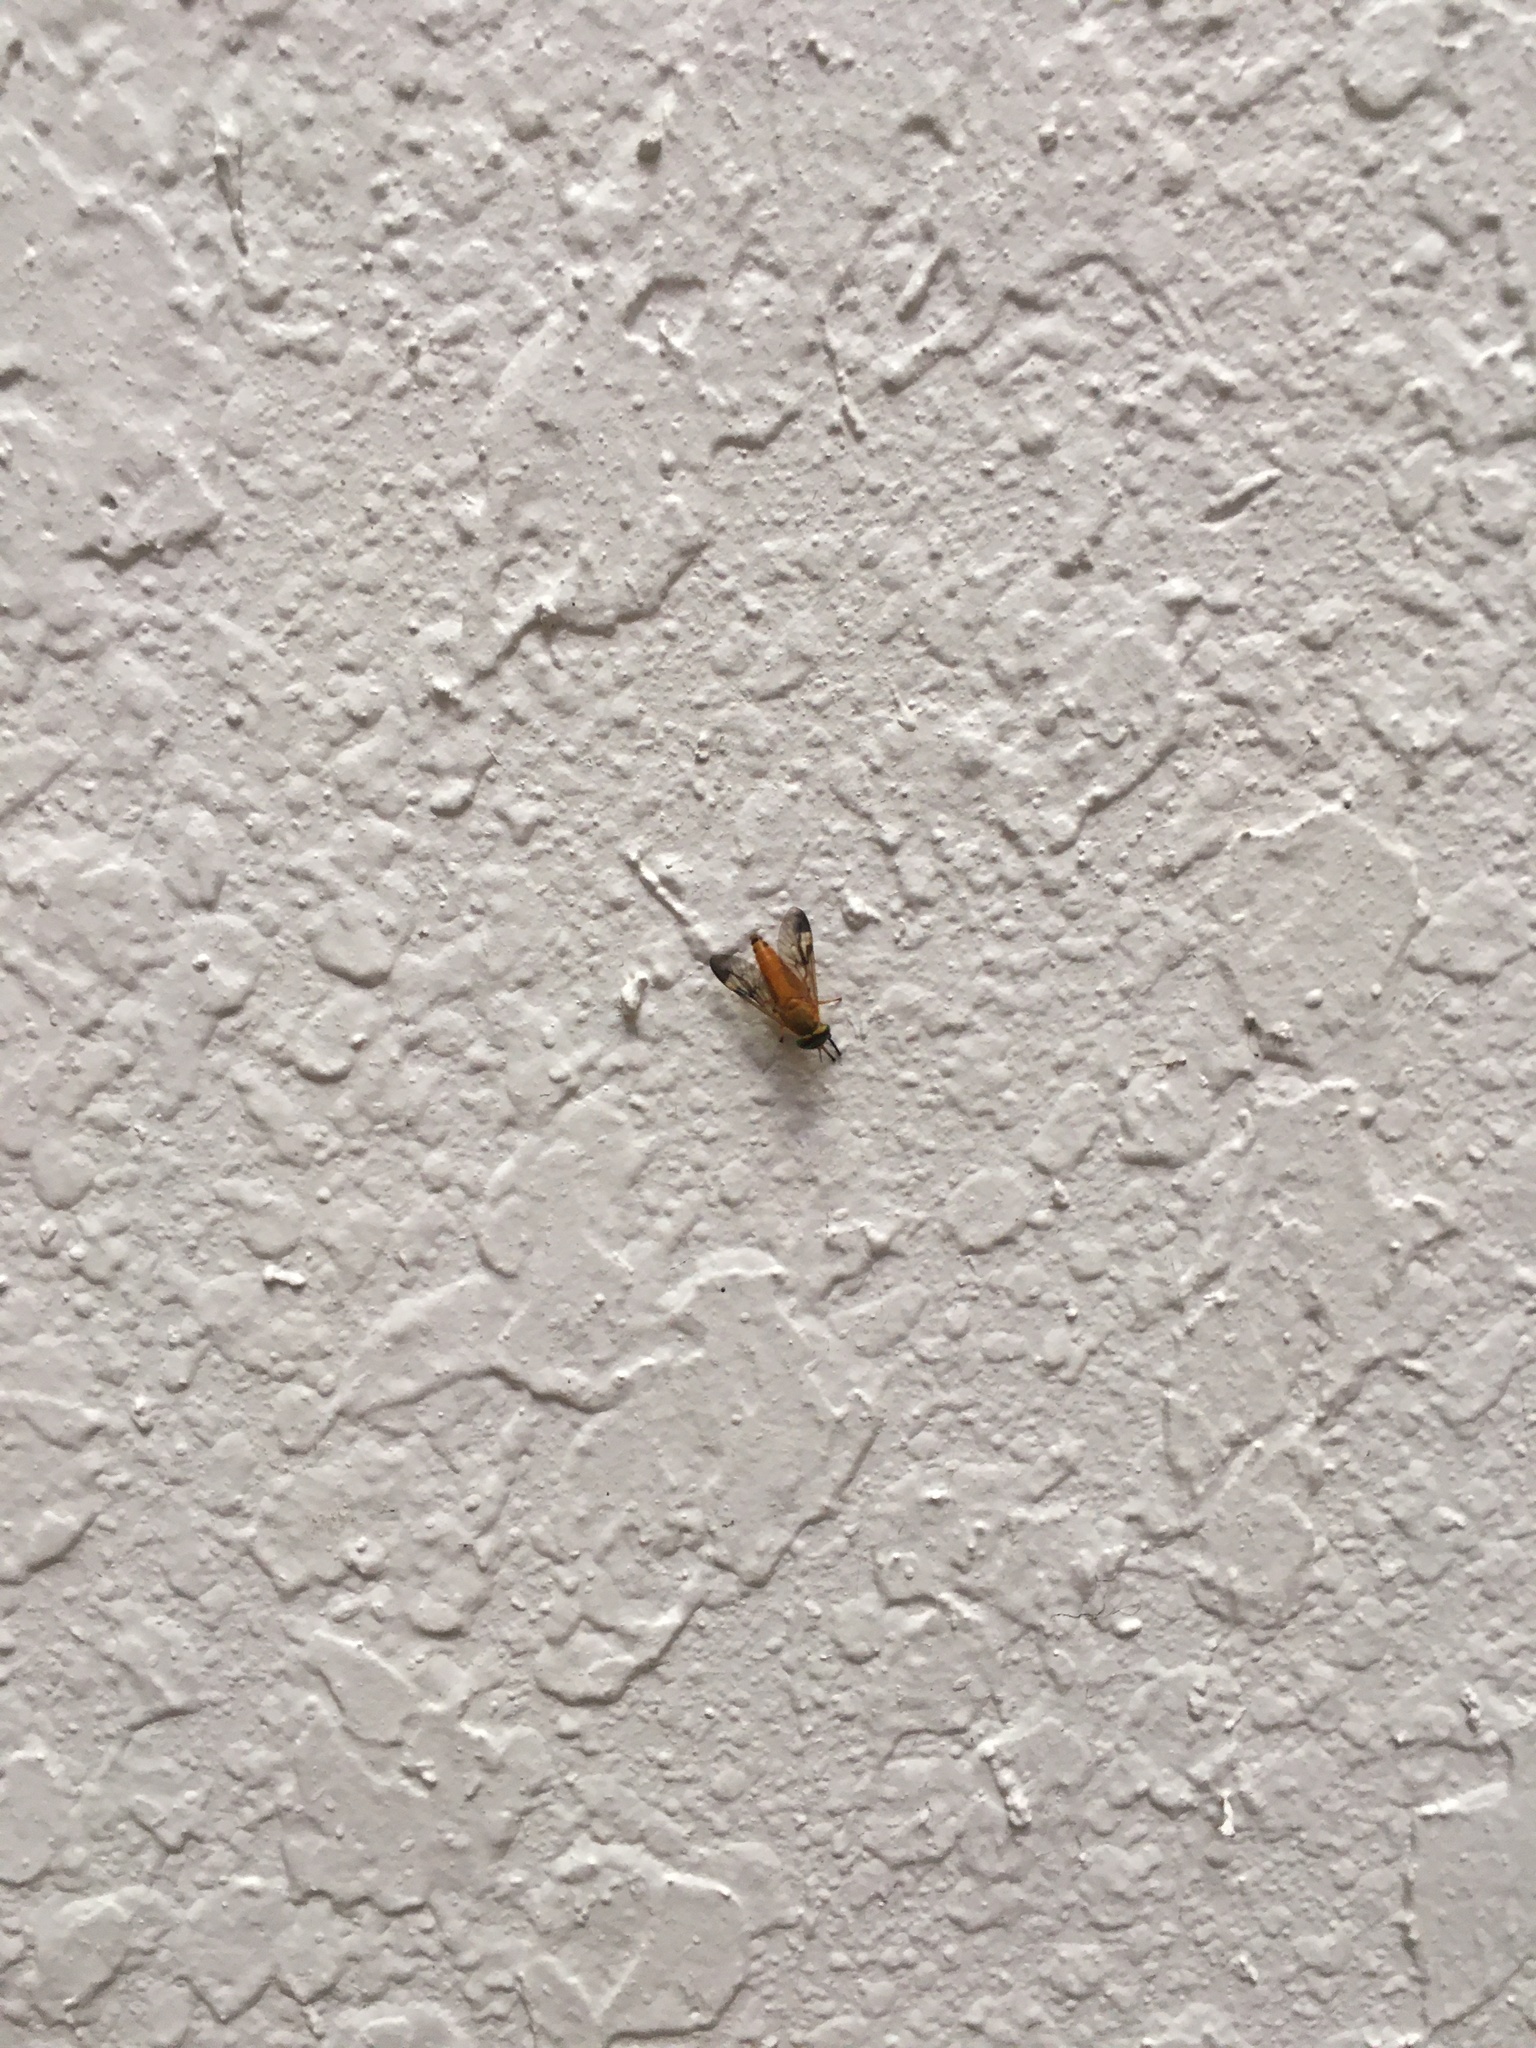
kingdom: Animalia
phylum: Arthropoda
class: Insecta
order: Diptera
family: Tabanidae
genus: Diachlorus
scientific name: Diachlorus ferrugatus
